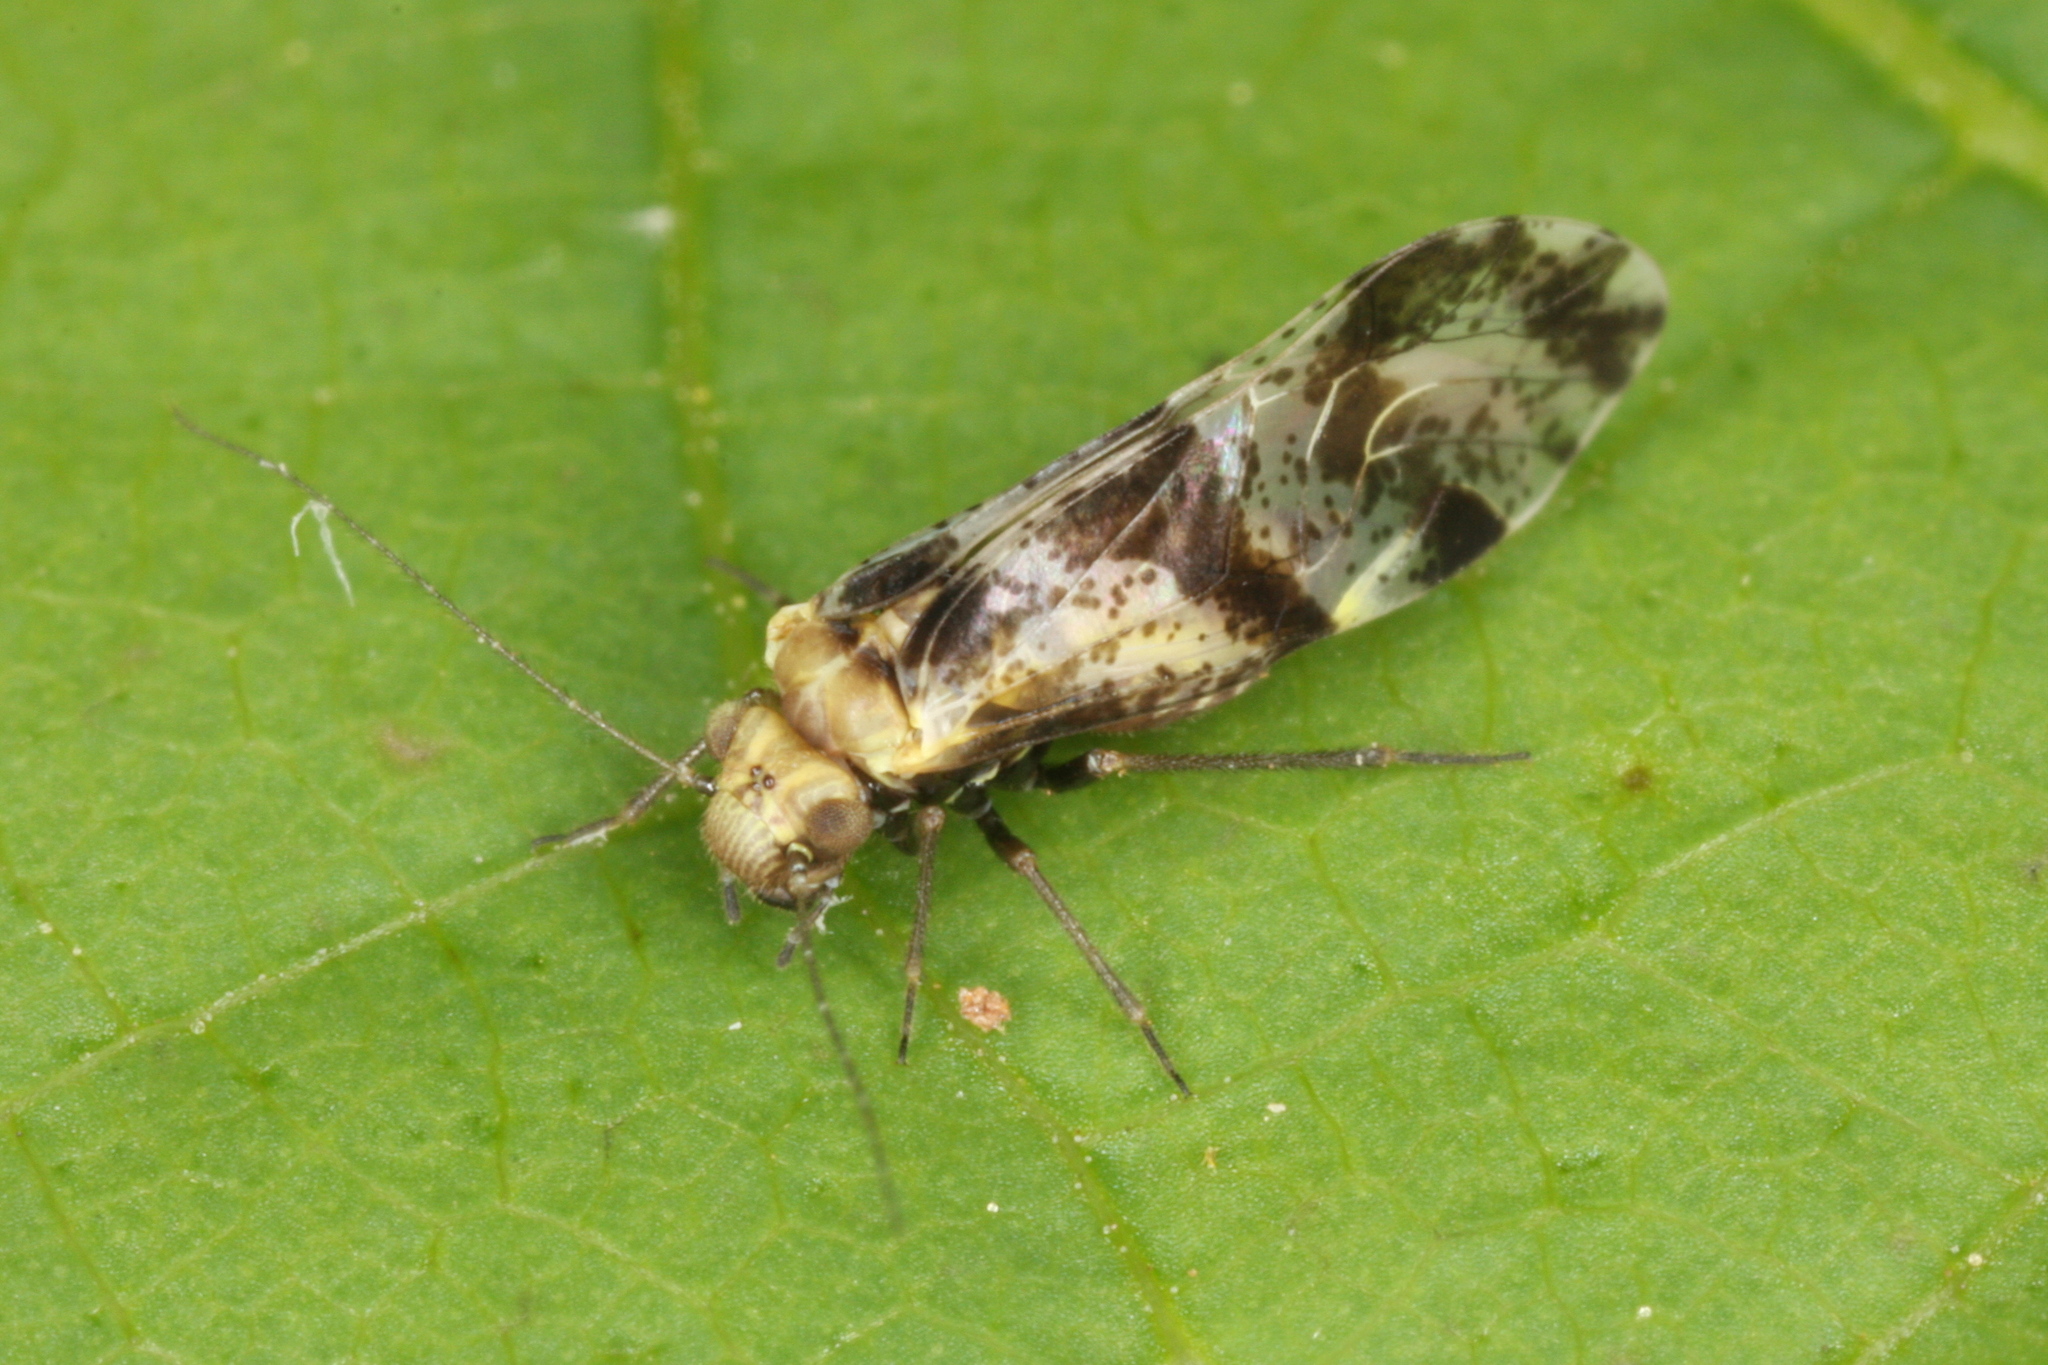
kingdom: Animalia
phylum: Arthropoda
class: Insecta
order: Psocodea
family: Psocidae
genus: Loensia
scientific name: Loensia fasciata
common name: Common bark louse
